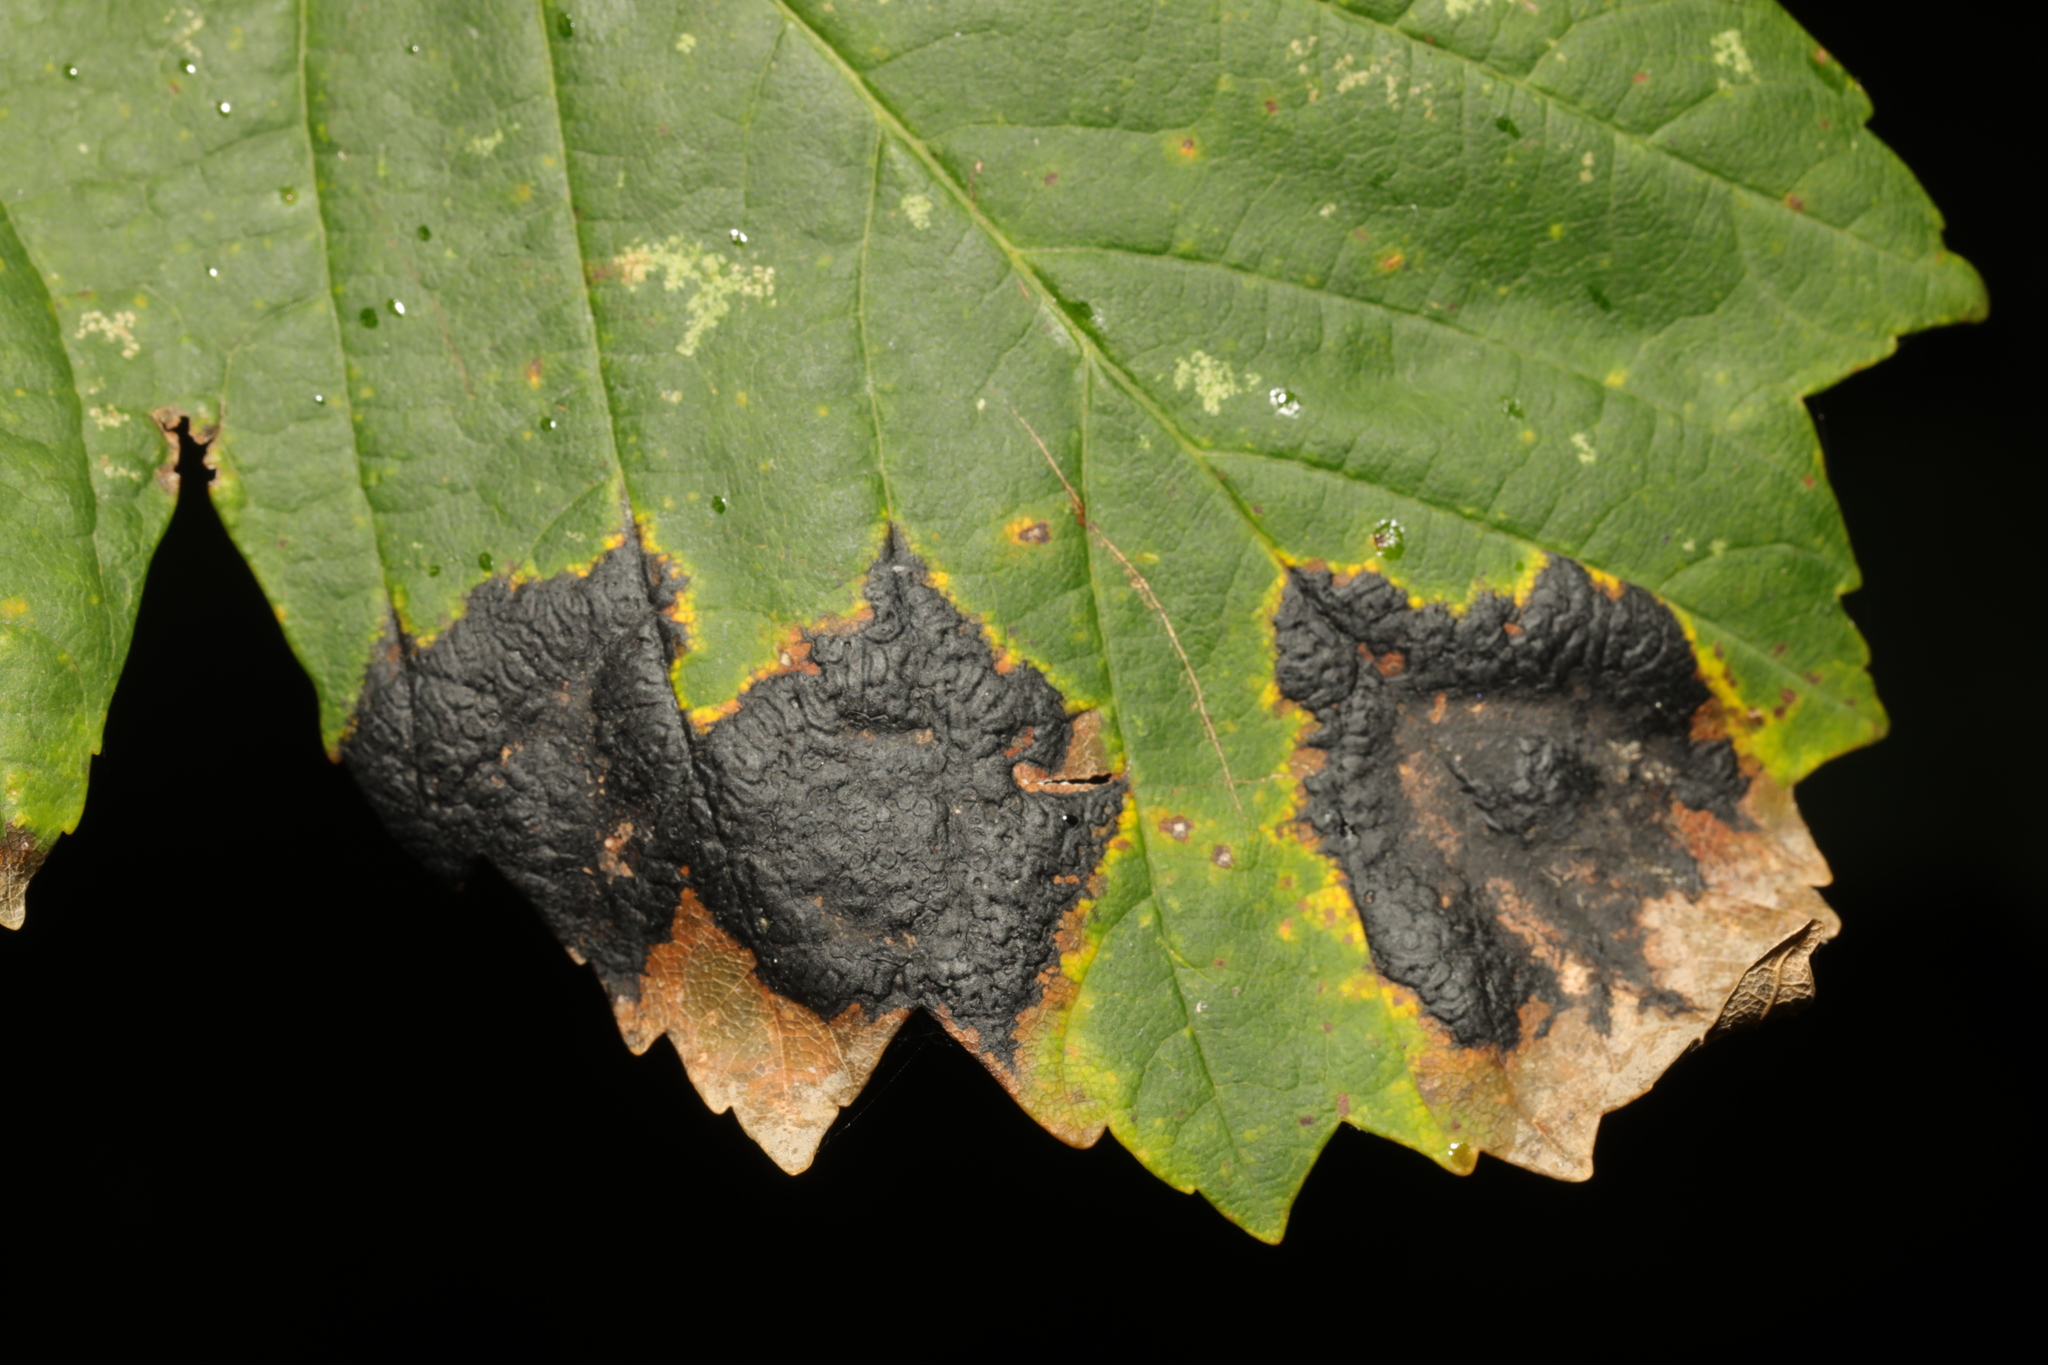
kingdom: Fungi
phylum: Ascomycota
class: Leotiomycetes
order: Rhytismatales
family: Rhytismataceae
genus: Rhytisma
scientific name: Rhytisma acerinum
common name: European tar spot
